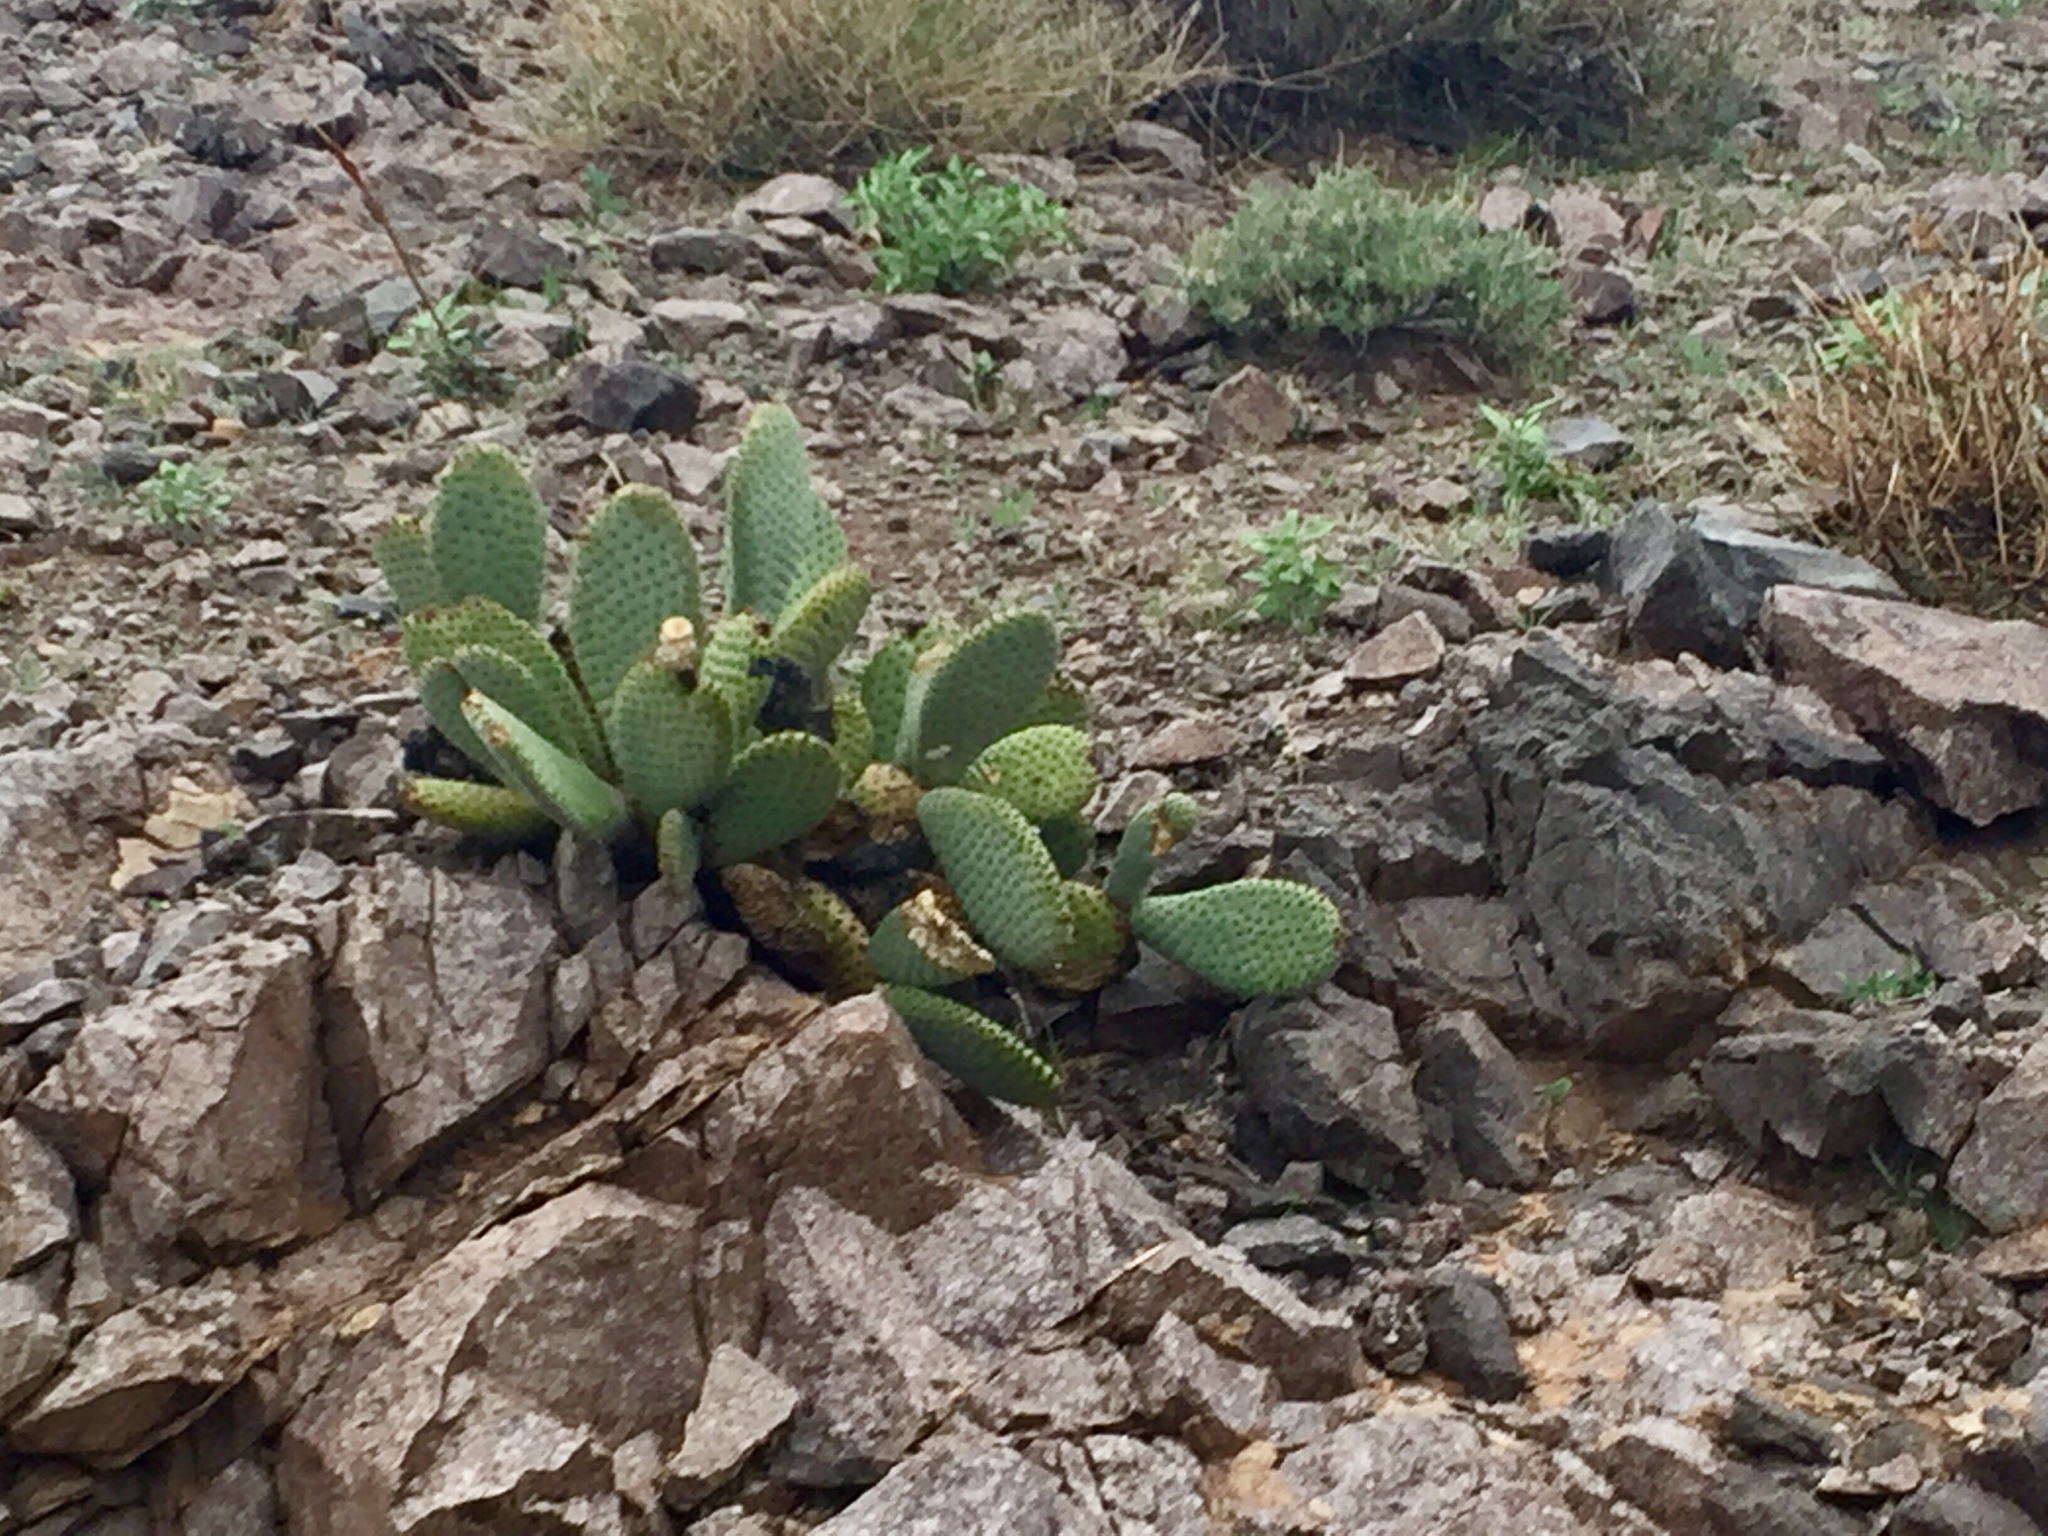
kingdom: Plantae
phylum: Tracheophyta
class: Magnoliopsida
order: Caryophyllales
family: Cactaceae
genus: Opuntia
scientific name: Opuntia basilaris
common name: Beavertail prickly-pear
